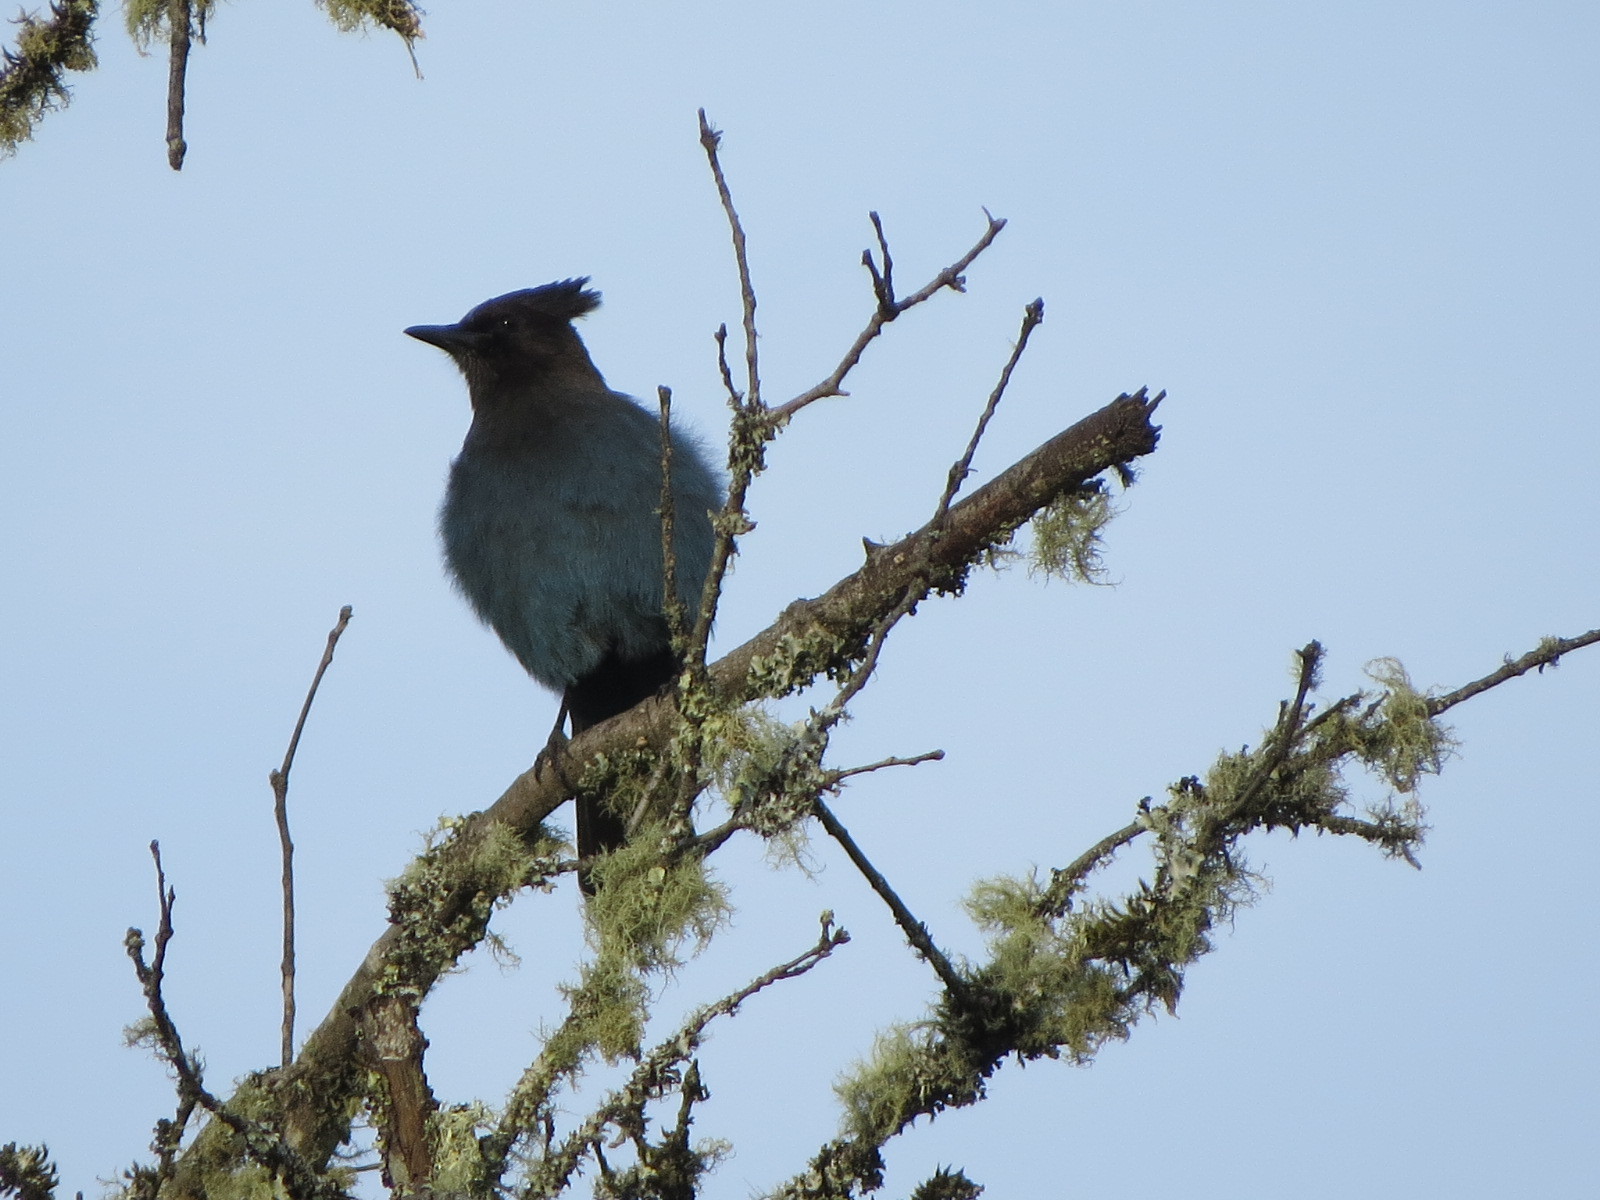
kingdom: Animalia
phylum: Chordata
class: Aves
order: Passeriformes
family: Corvidae
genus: Cyanocitta
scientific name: Cyanocitta stelleri
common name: Steller's jay
